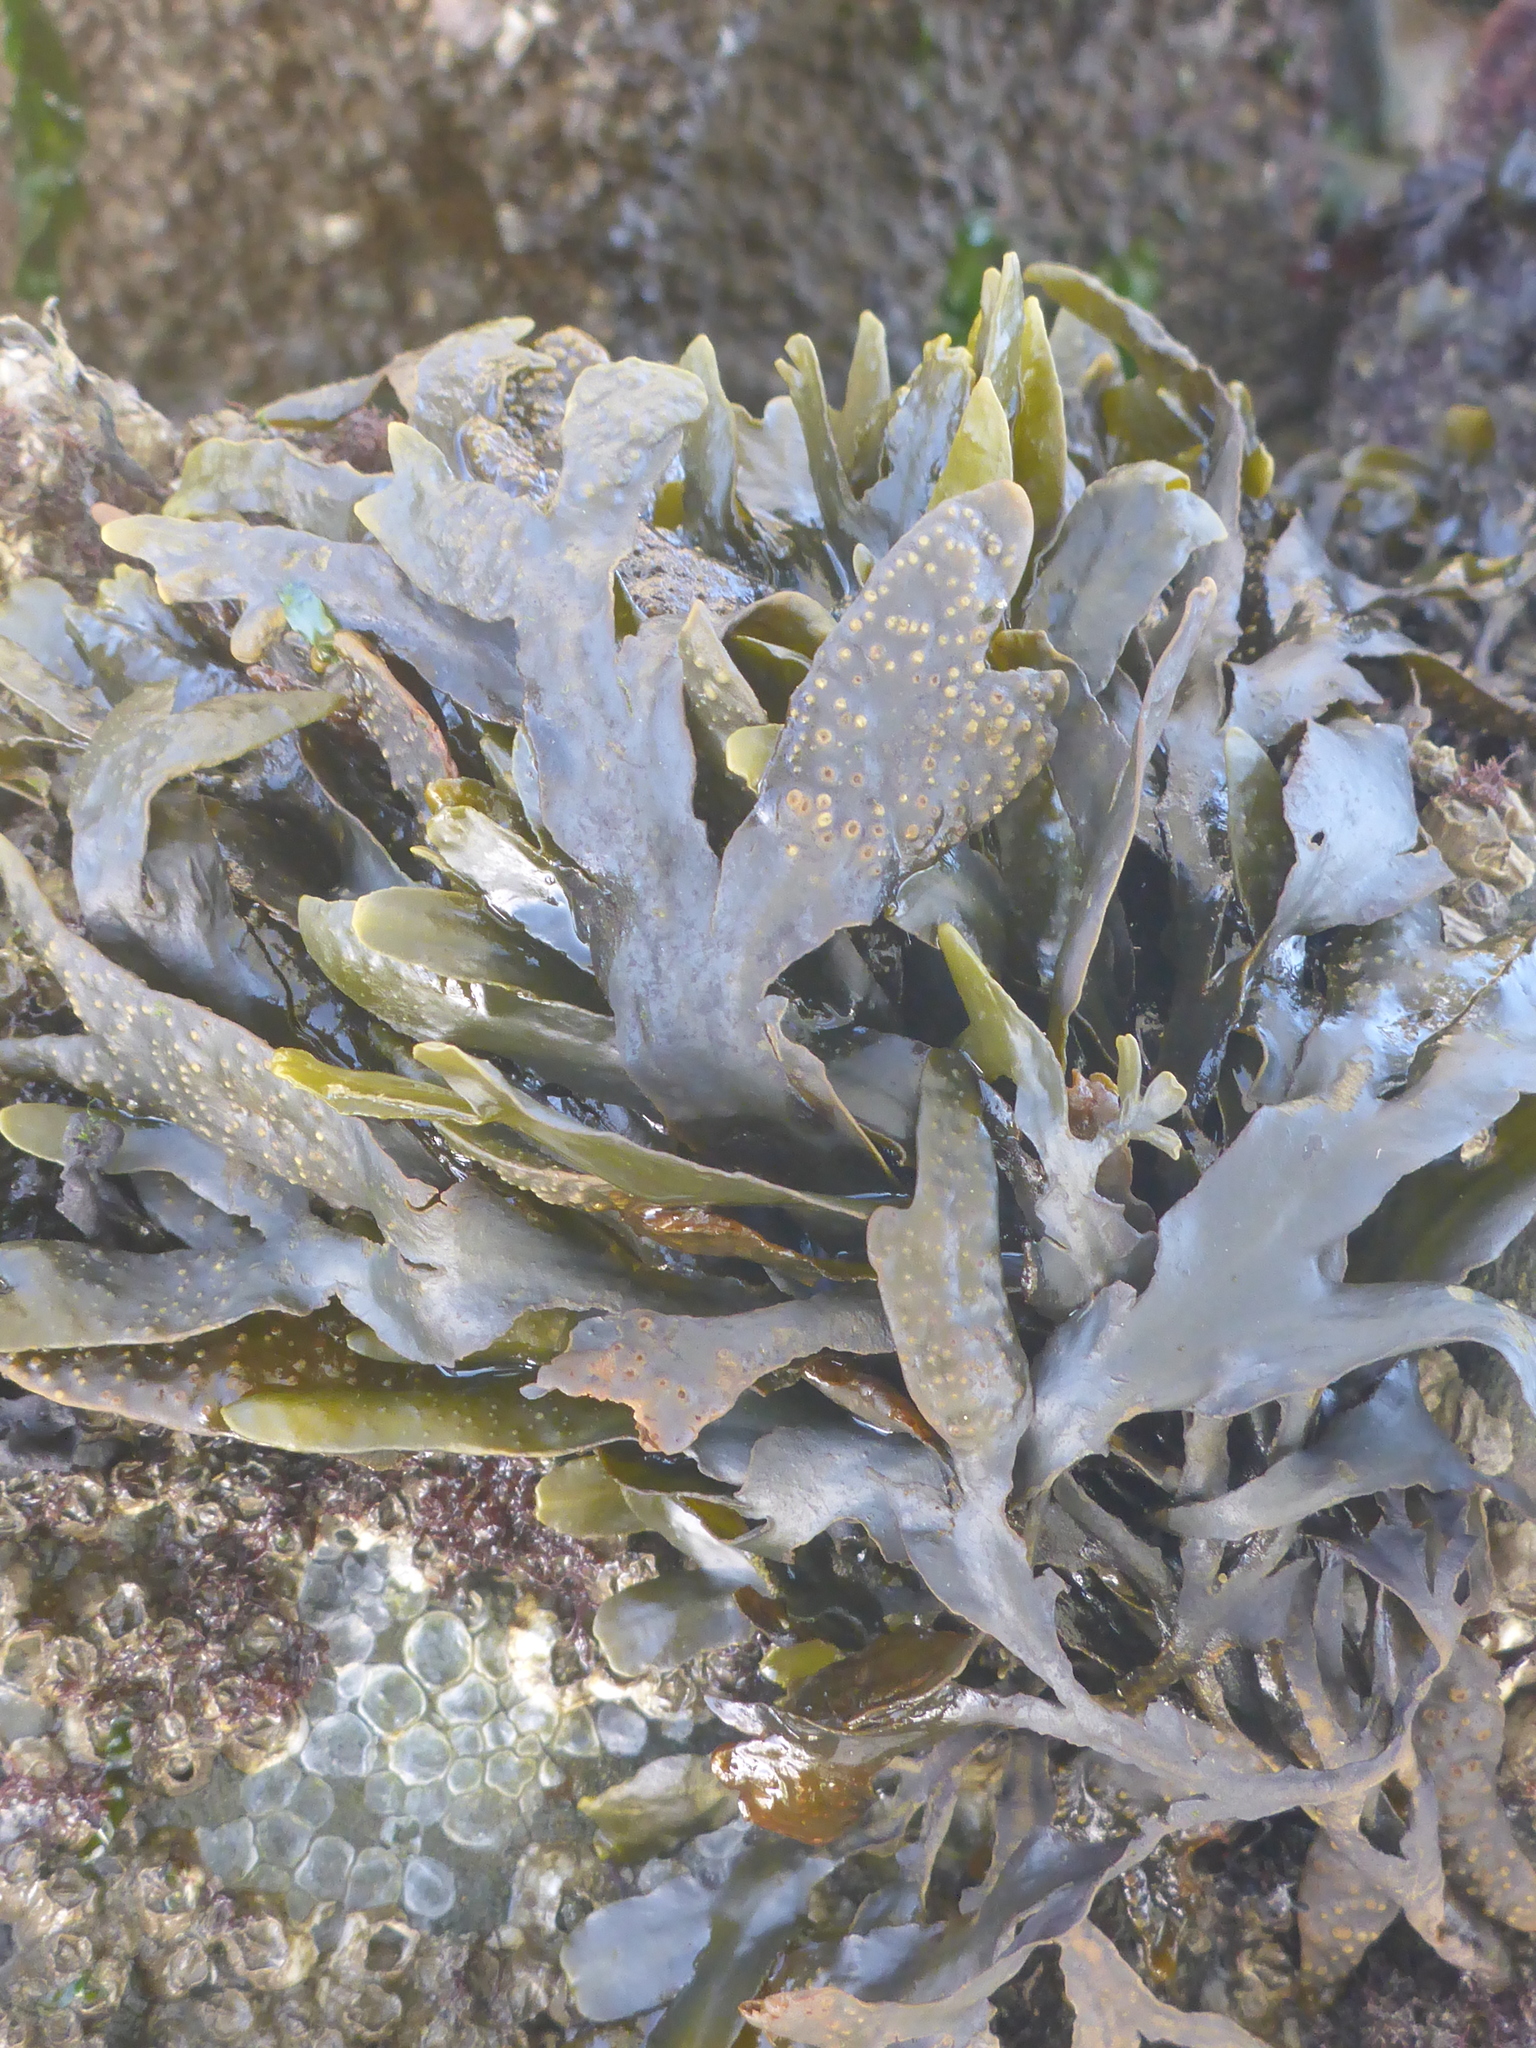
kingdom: Chromista
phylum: Ochrophyta
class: Phaeophyceae
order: Fucales
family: Fucaceae
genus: Fucus
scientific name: Fucus distichus
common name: Rockweed
